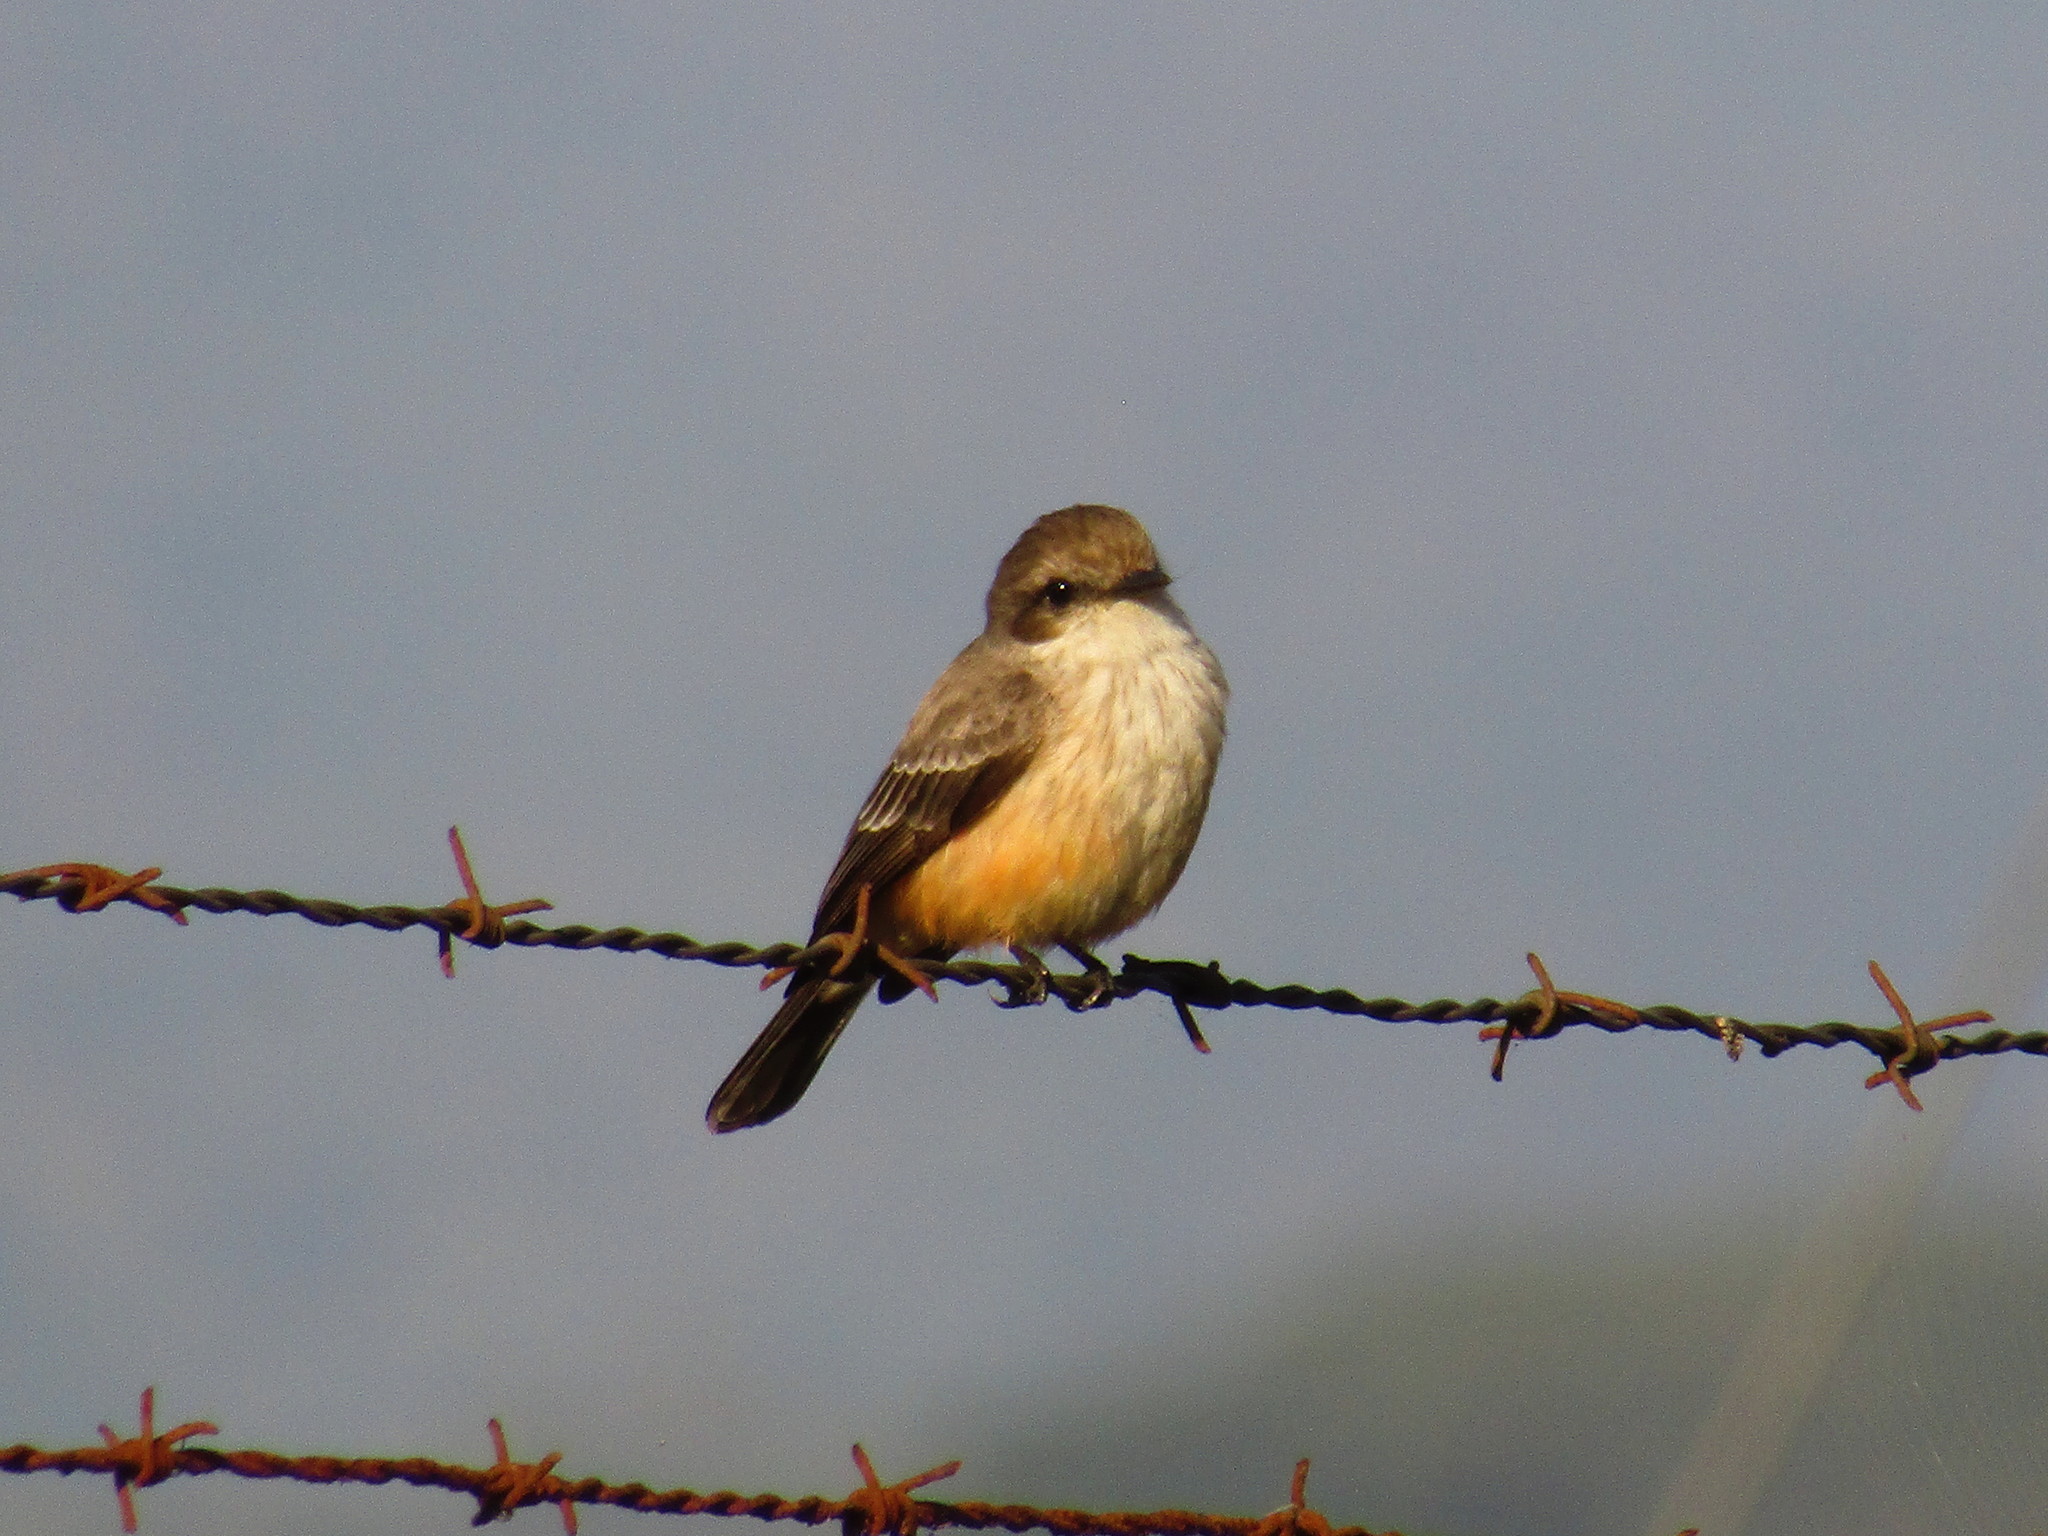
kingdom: Animalia
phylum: Chordata
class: Aves
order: Passeriformes
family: Tyrannidae
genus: Pyrocephalus
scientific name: Pyrocephalus rubinus
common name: Vermilion flycatcher
